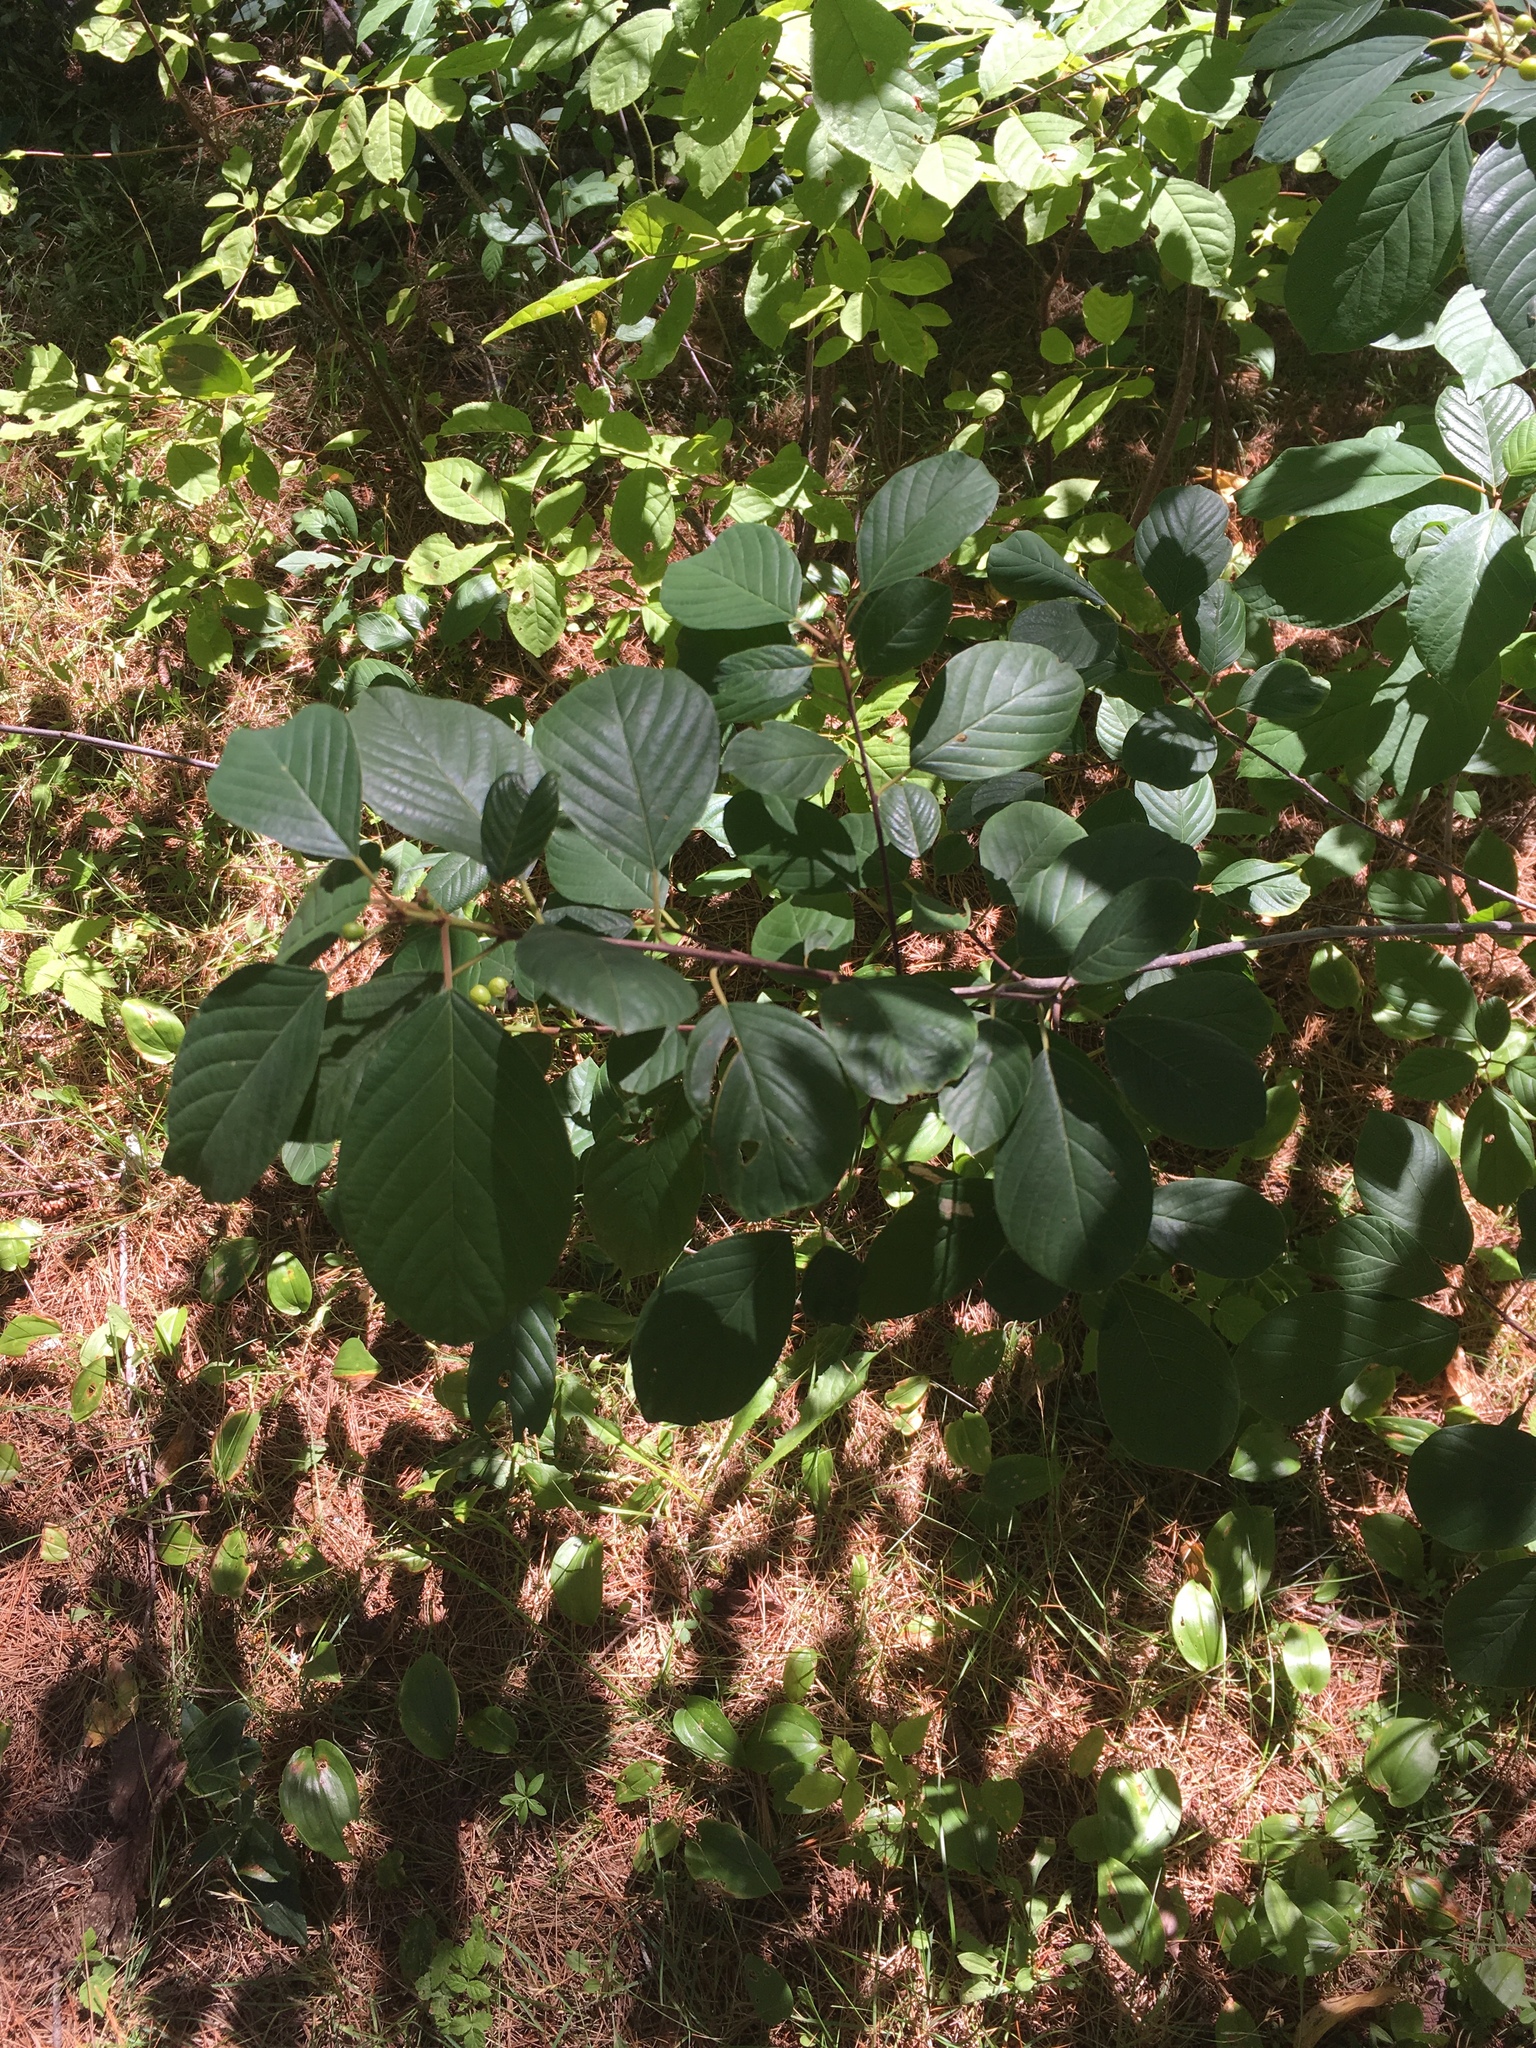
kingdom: Plantae
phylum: Tracheophyta
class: Magnoliopsida
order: Rosales
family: Rhamnaceae
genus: Frangula
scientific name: Frangula alnus
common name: Alder buckthorn
